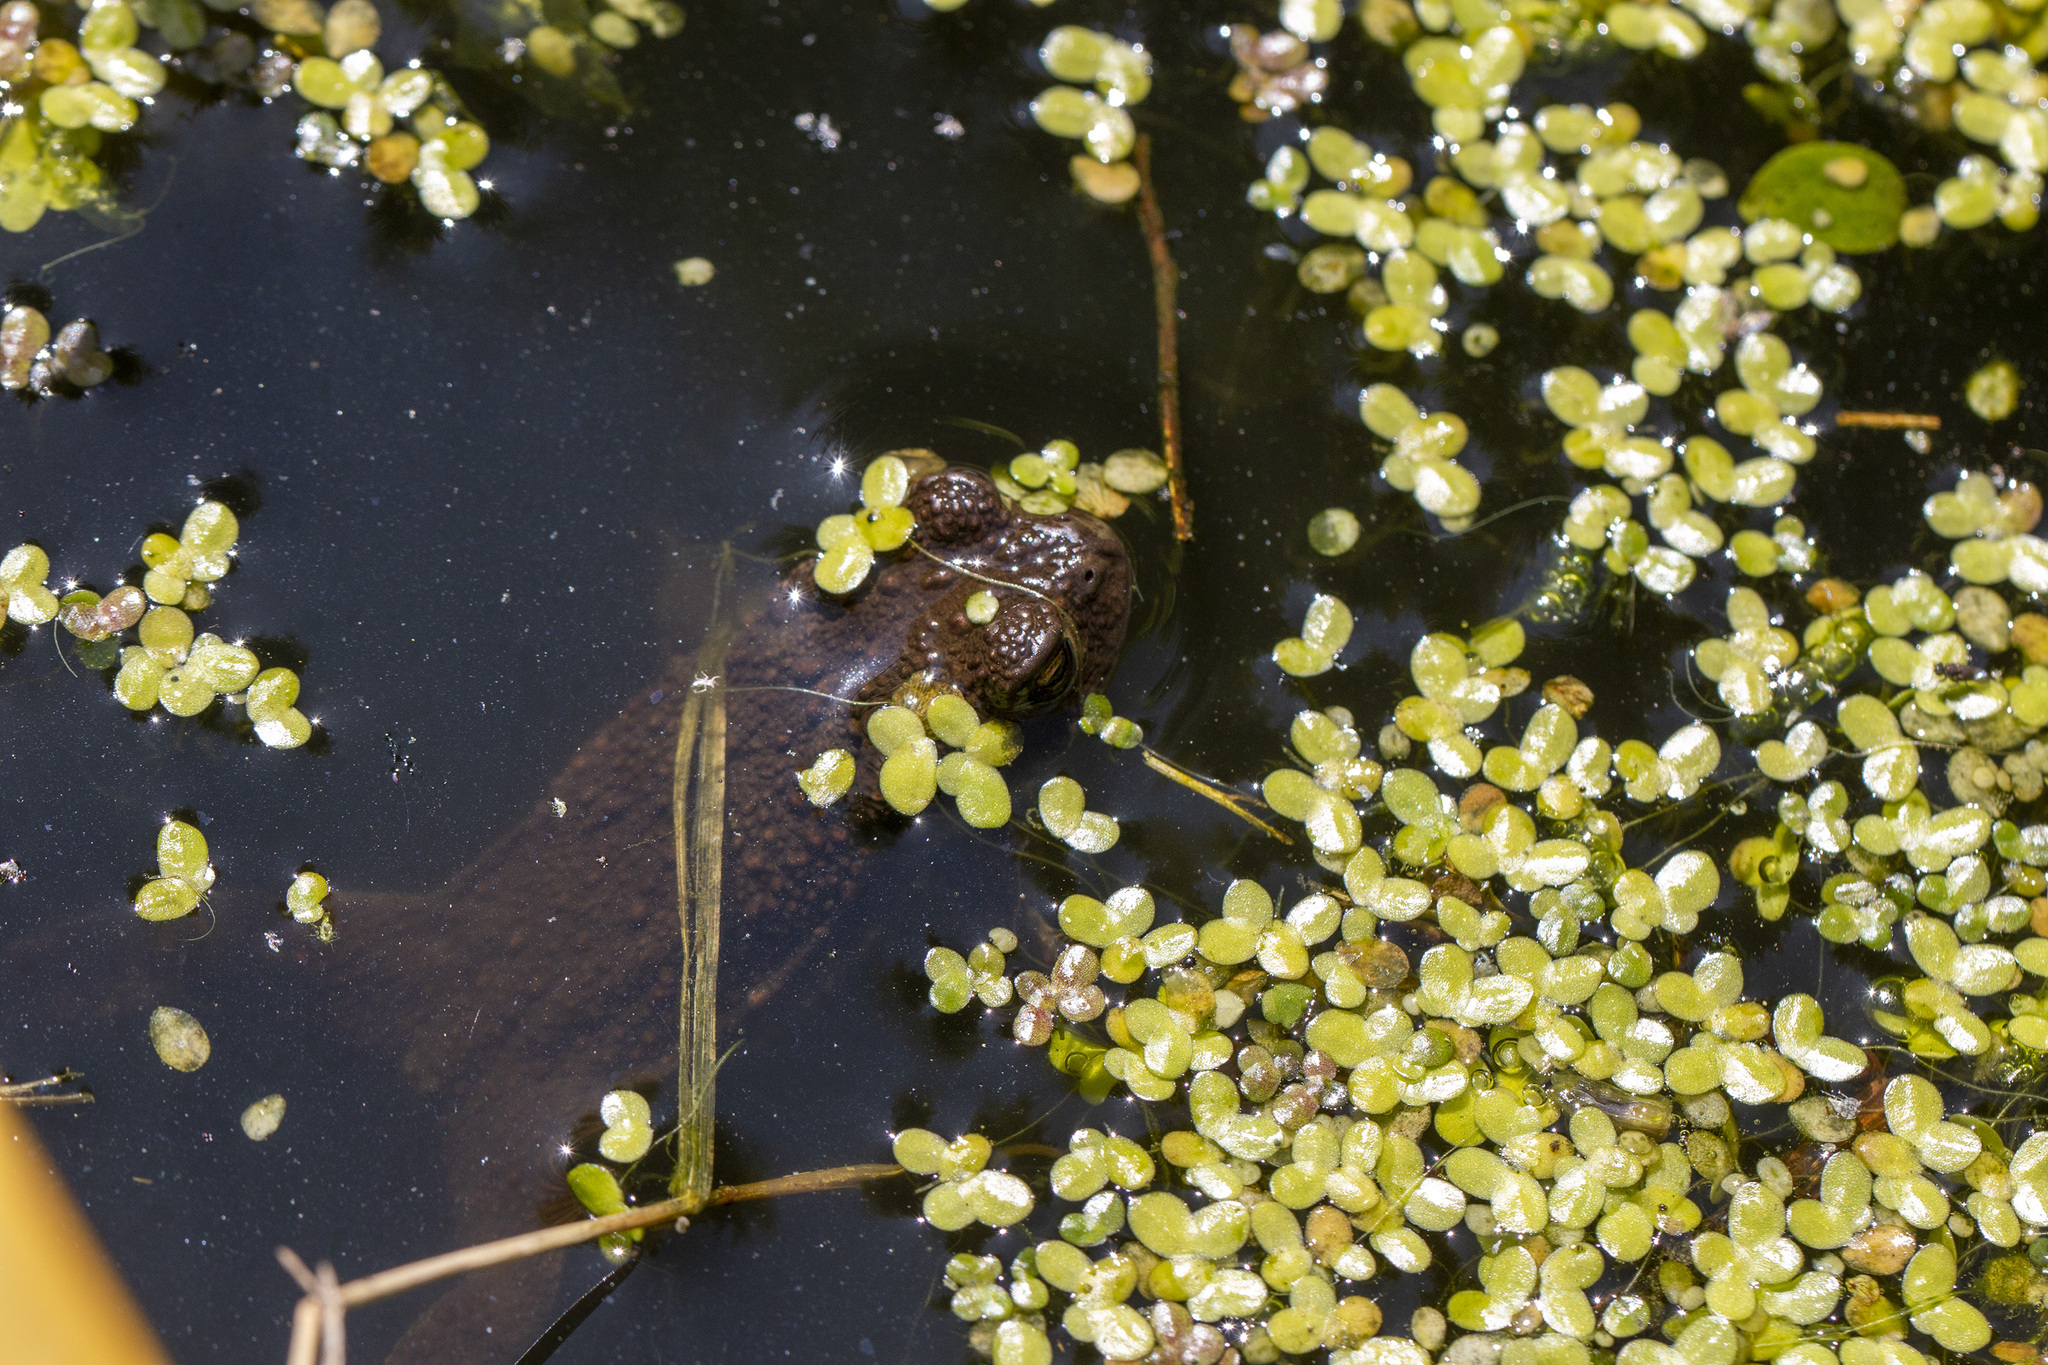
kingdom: Animalia
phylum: Chordata
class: Amphibia
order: Anura
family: Bufonidae
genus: Bufo
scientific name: Bufo bufo
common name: Common toad
